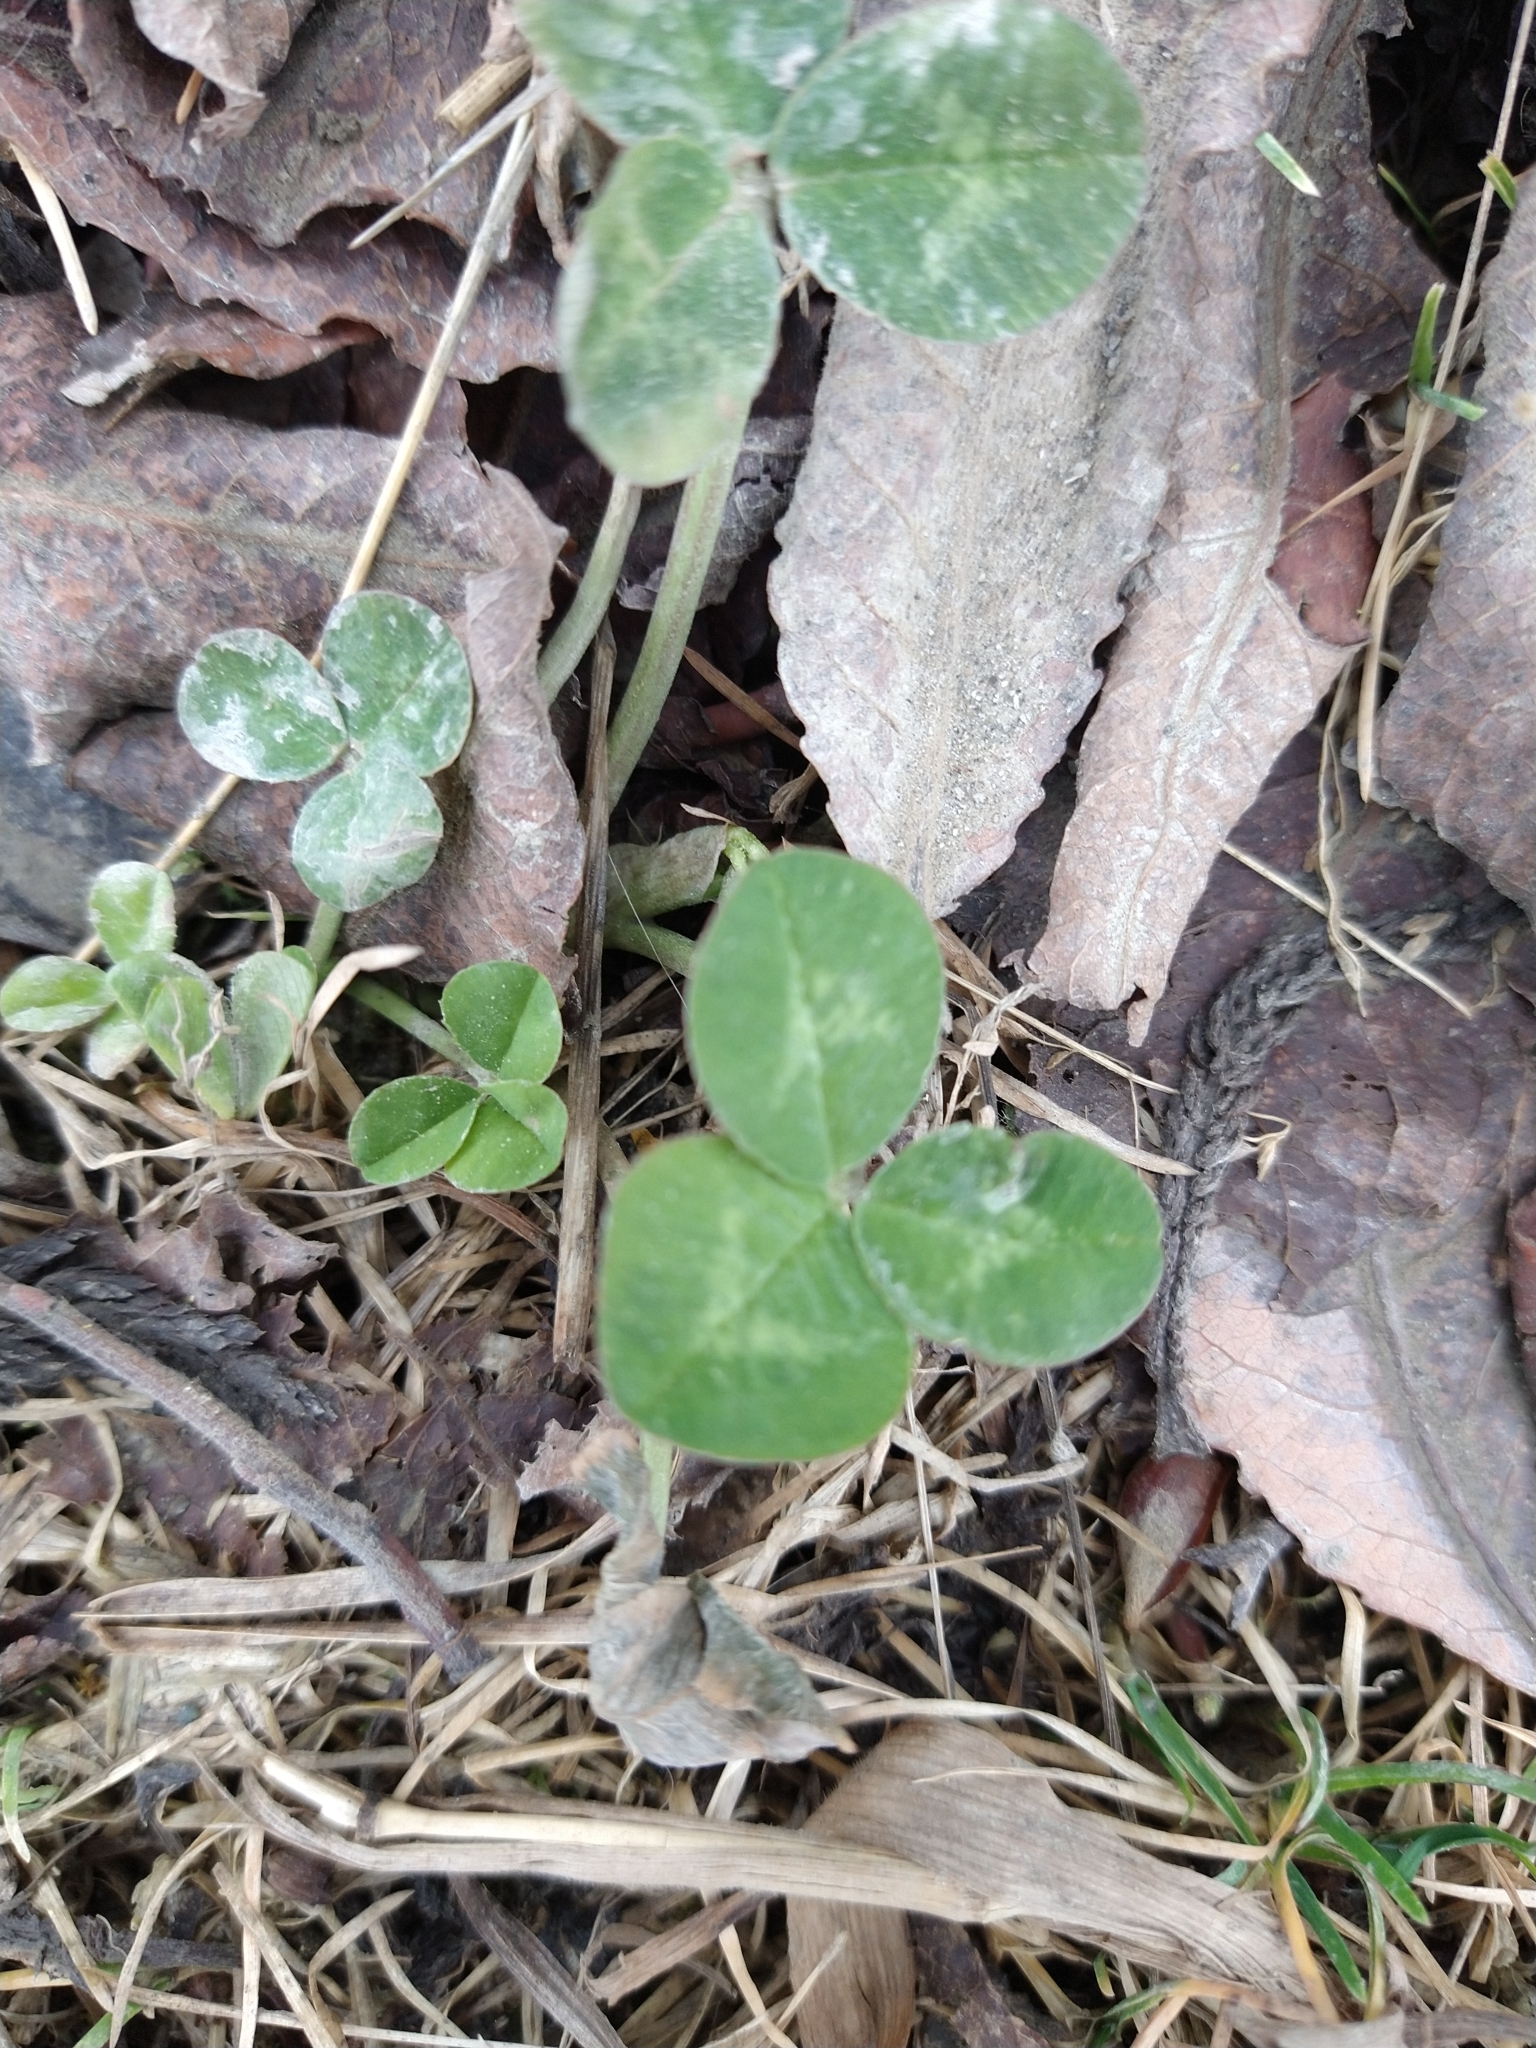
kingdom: Plantae
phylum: Tracheophyta
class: Magnoliopsida
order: Fabales
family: Fabaceae
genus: Trifolium
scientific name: Trifolium repens
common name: White clover
